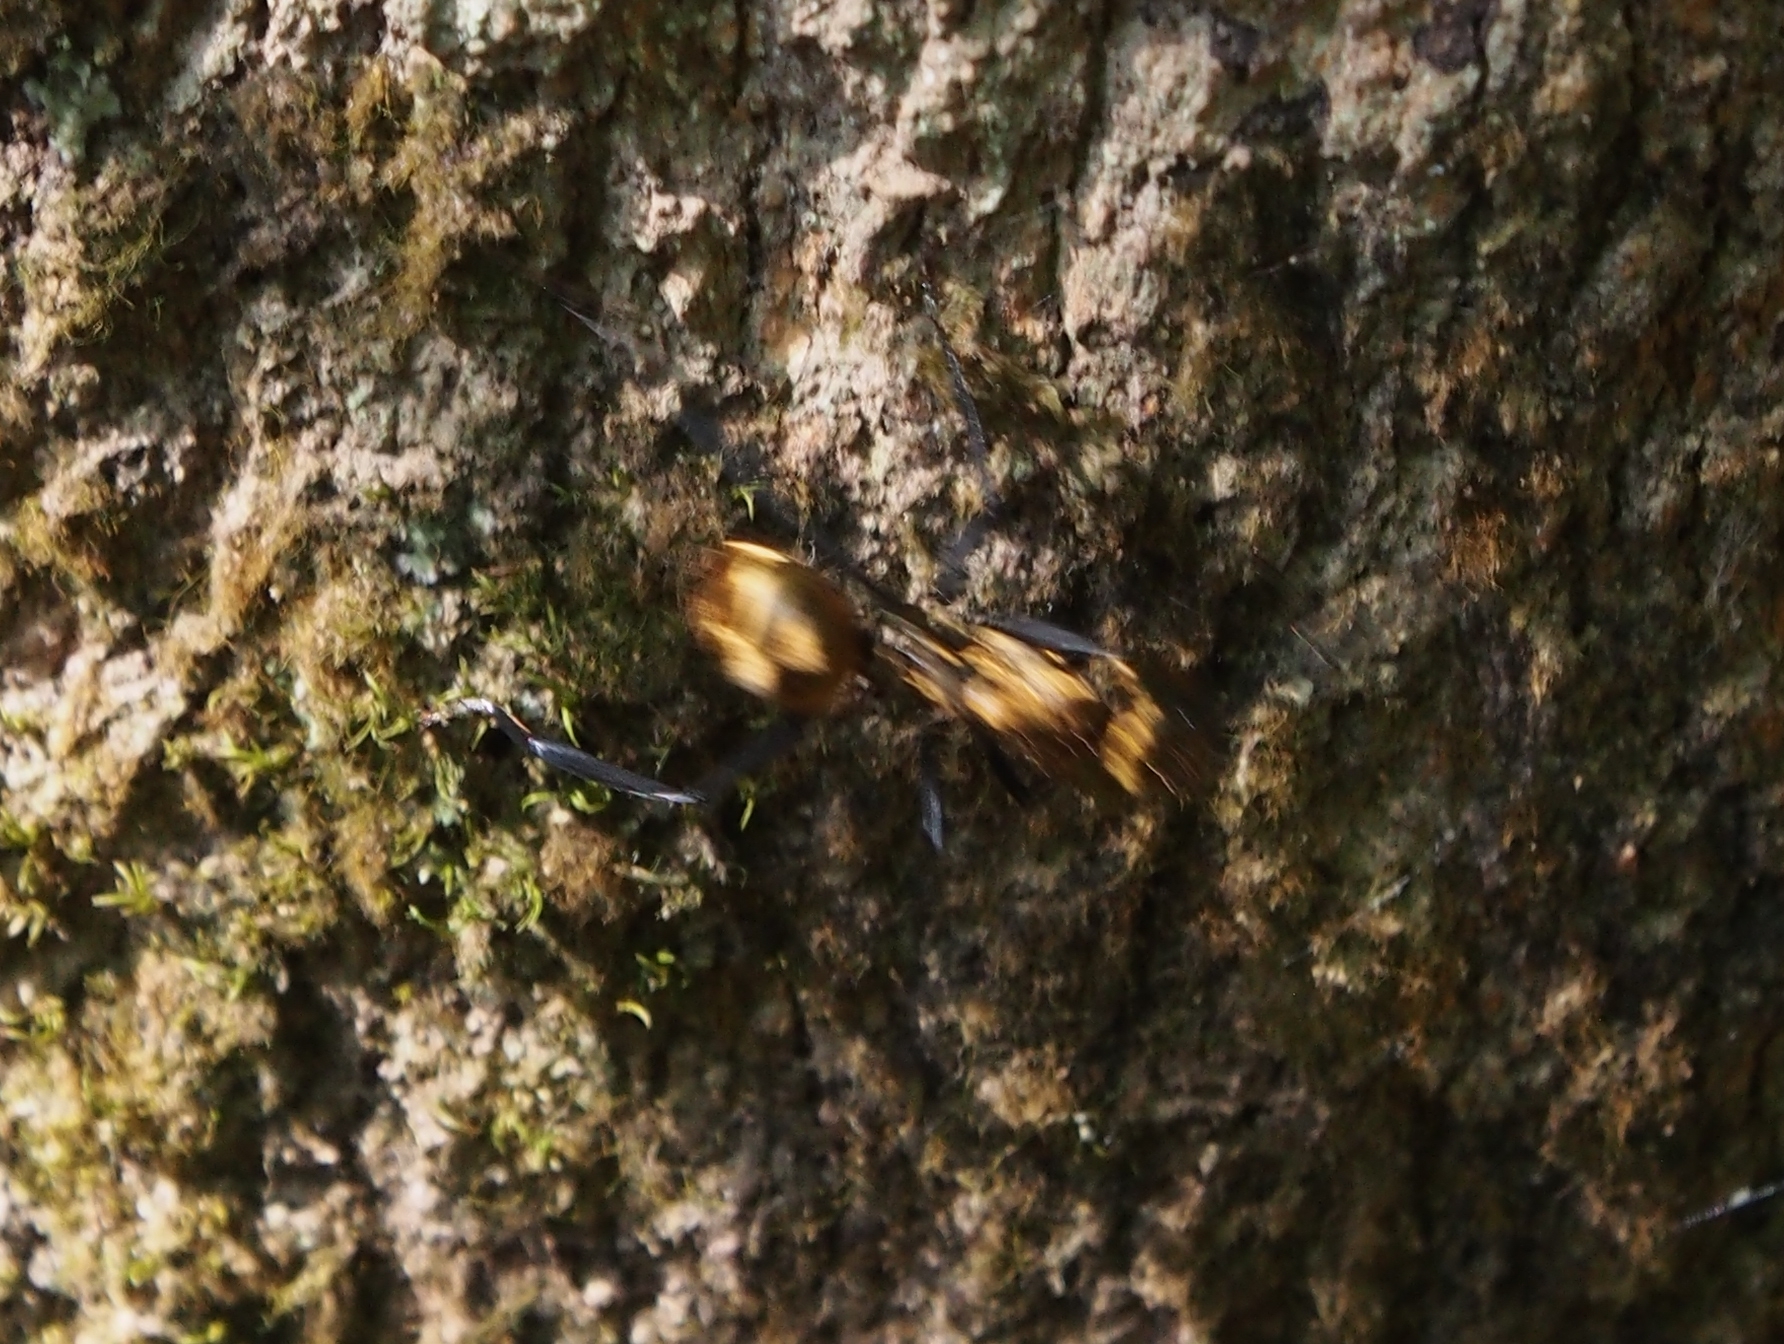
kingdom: Animalia
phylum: Arthropoda
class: Insecta
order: Hymenoptera
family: Formicidae
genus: Camponotus
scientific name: Camponotus sericeiventris
